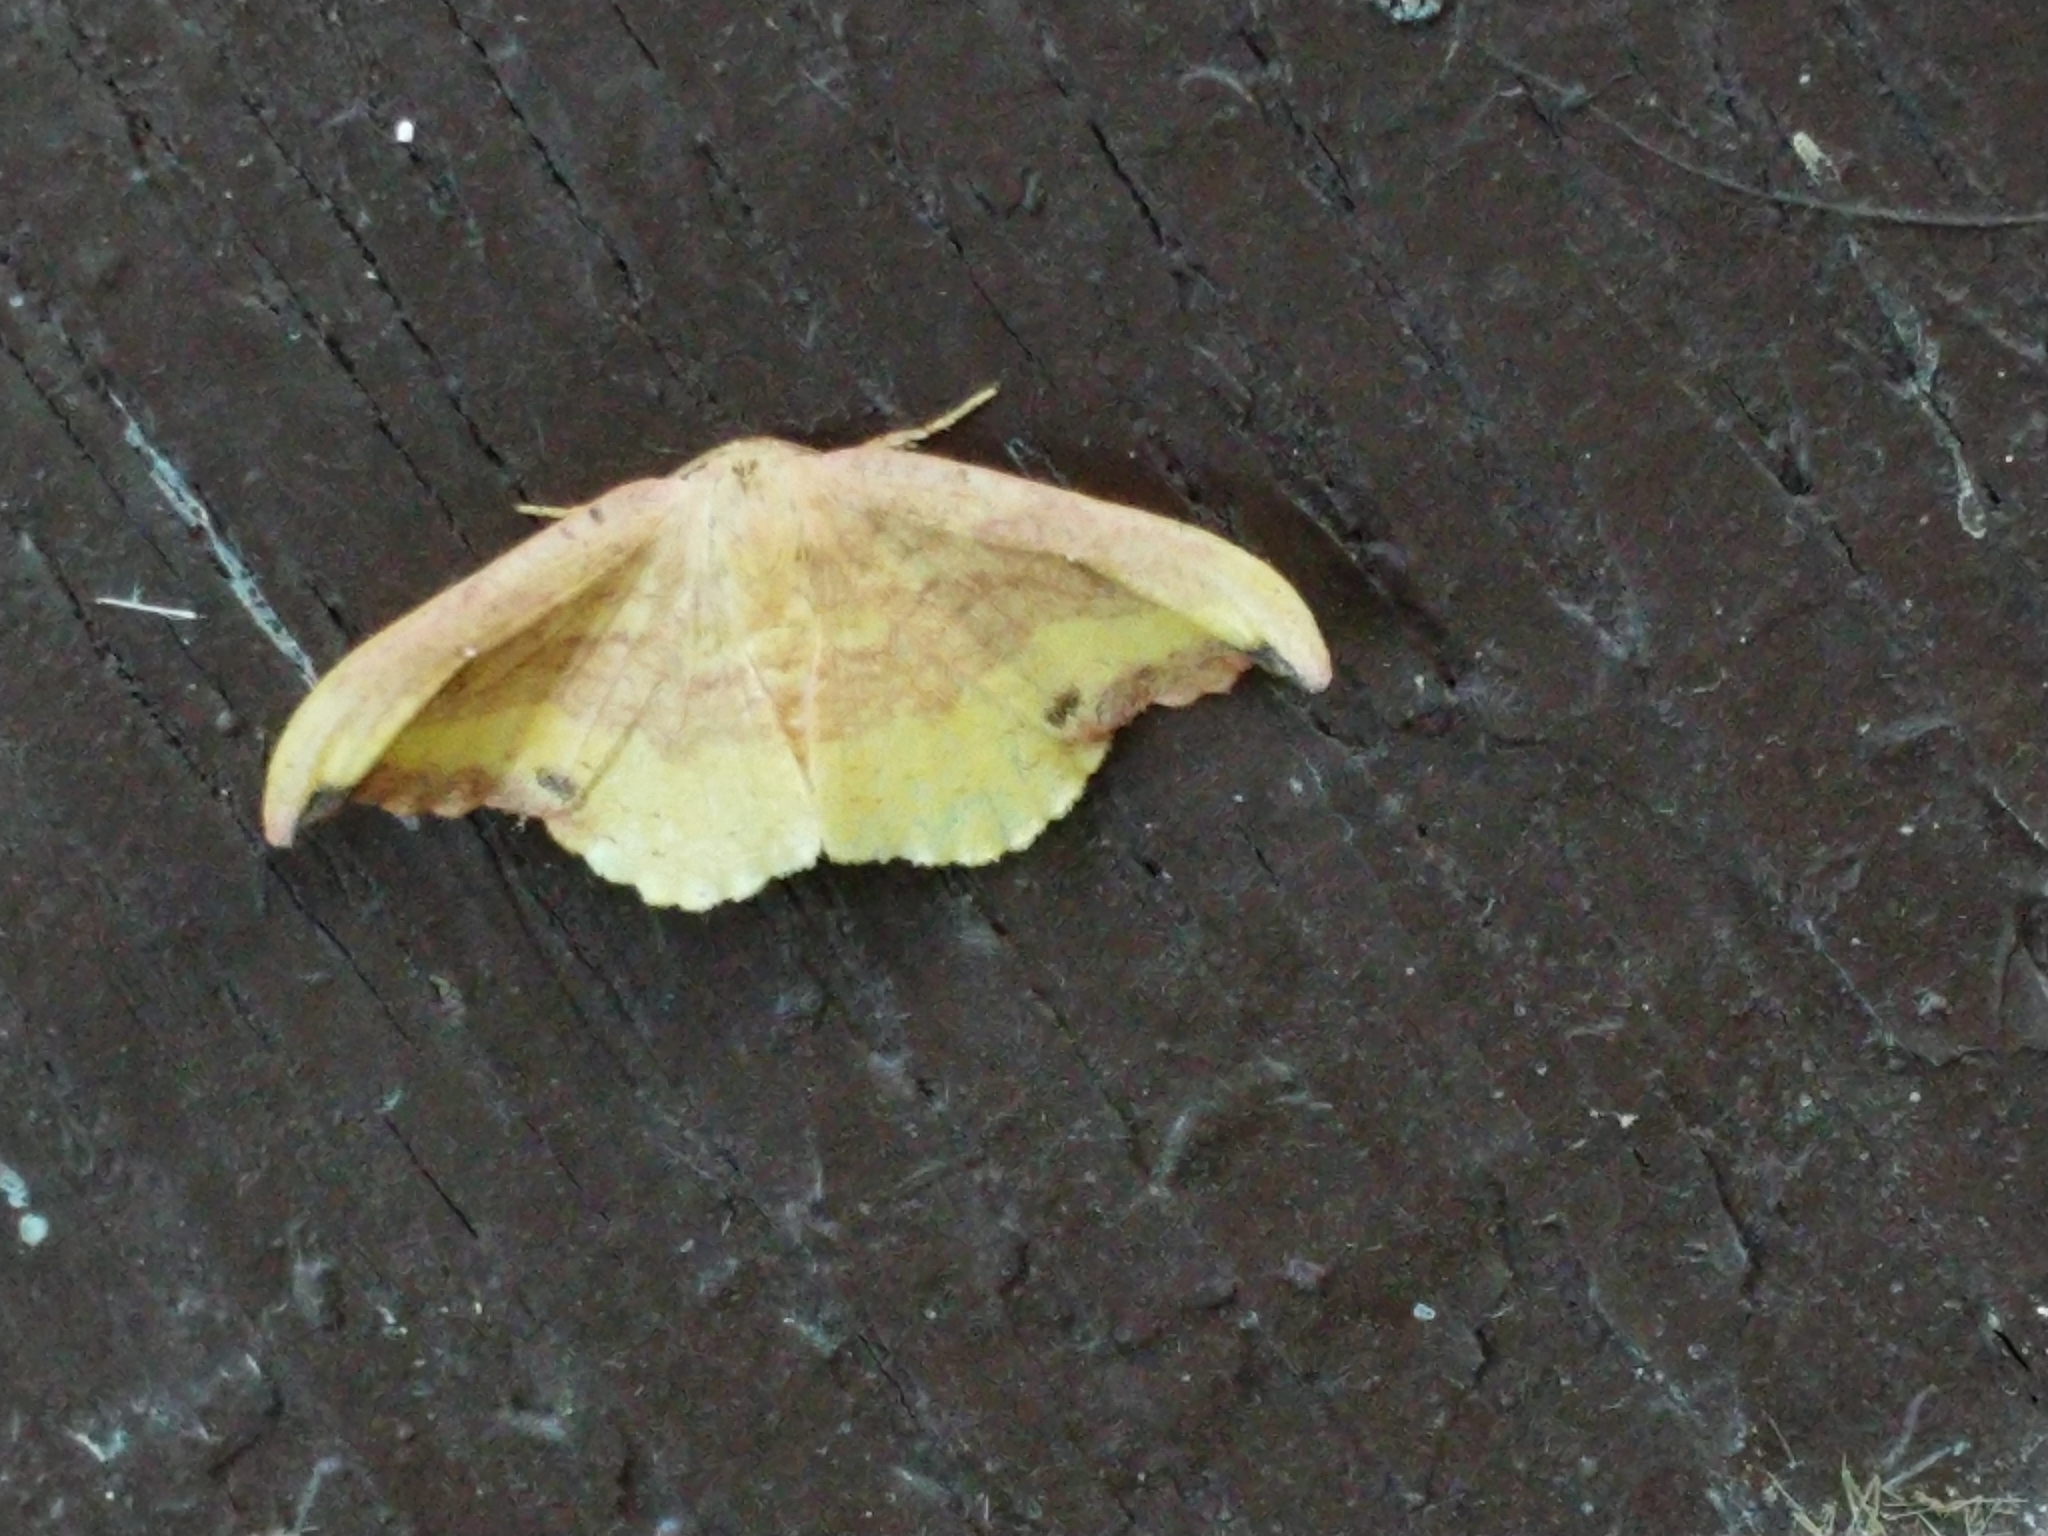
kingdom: Animalia
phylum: Arthropoda
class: Insecta
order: Lepidoptera
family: Drepanidae
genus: Oreta
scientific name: Oreta rosea
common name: Rose hooktip
